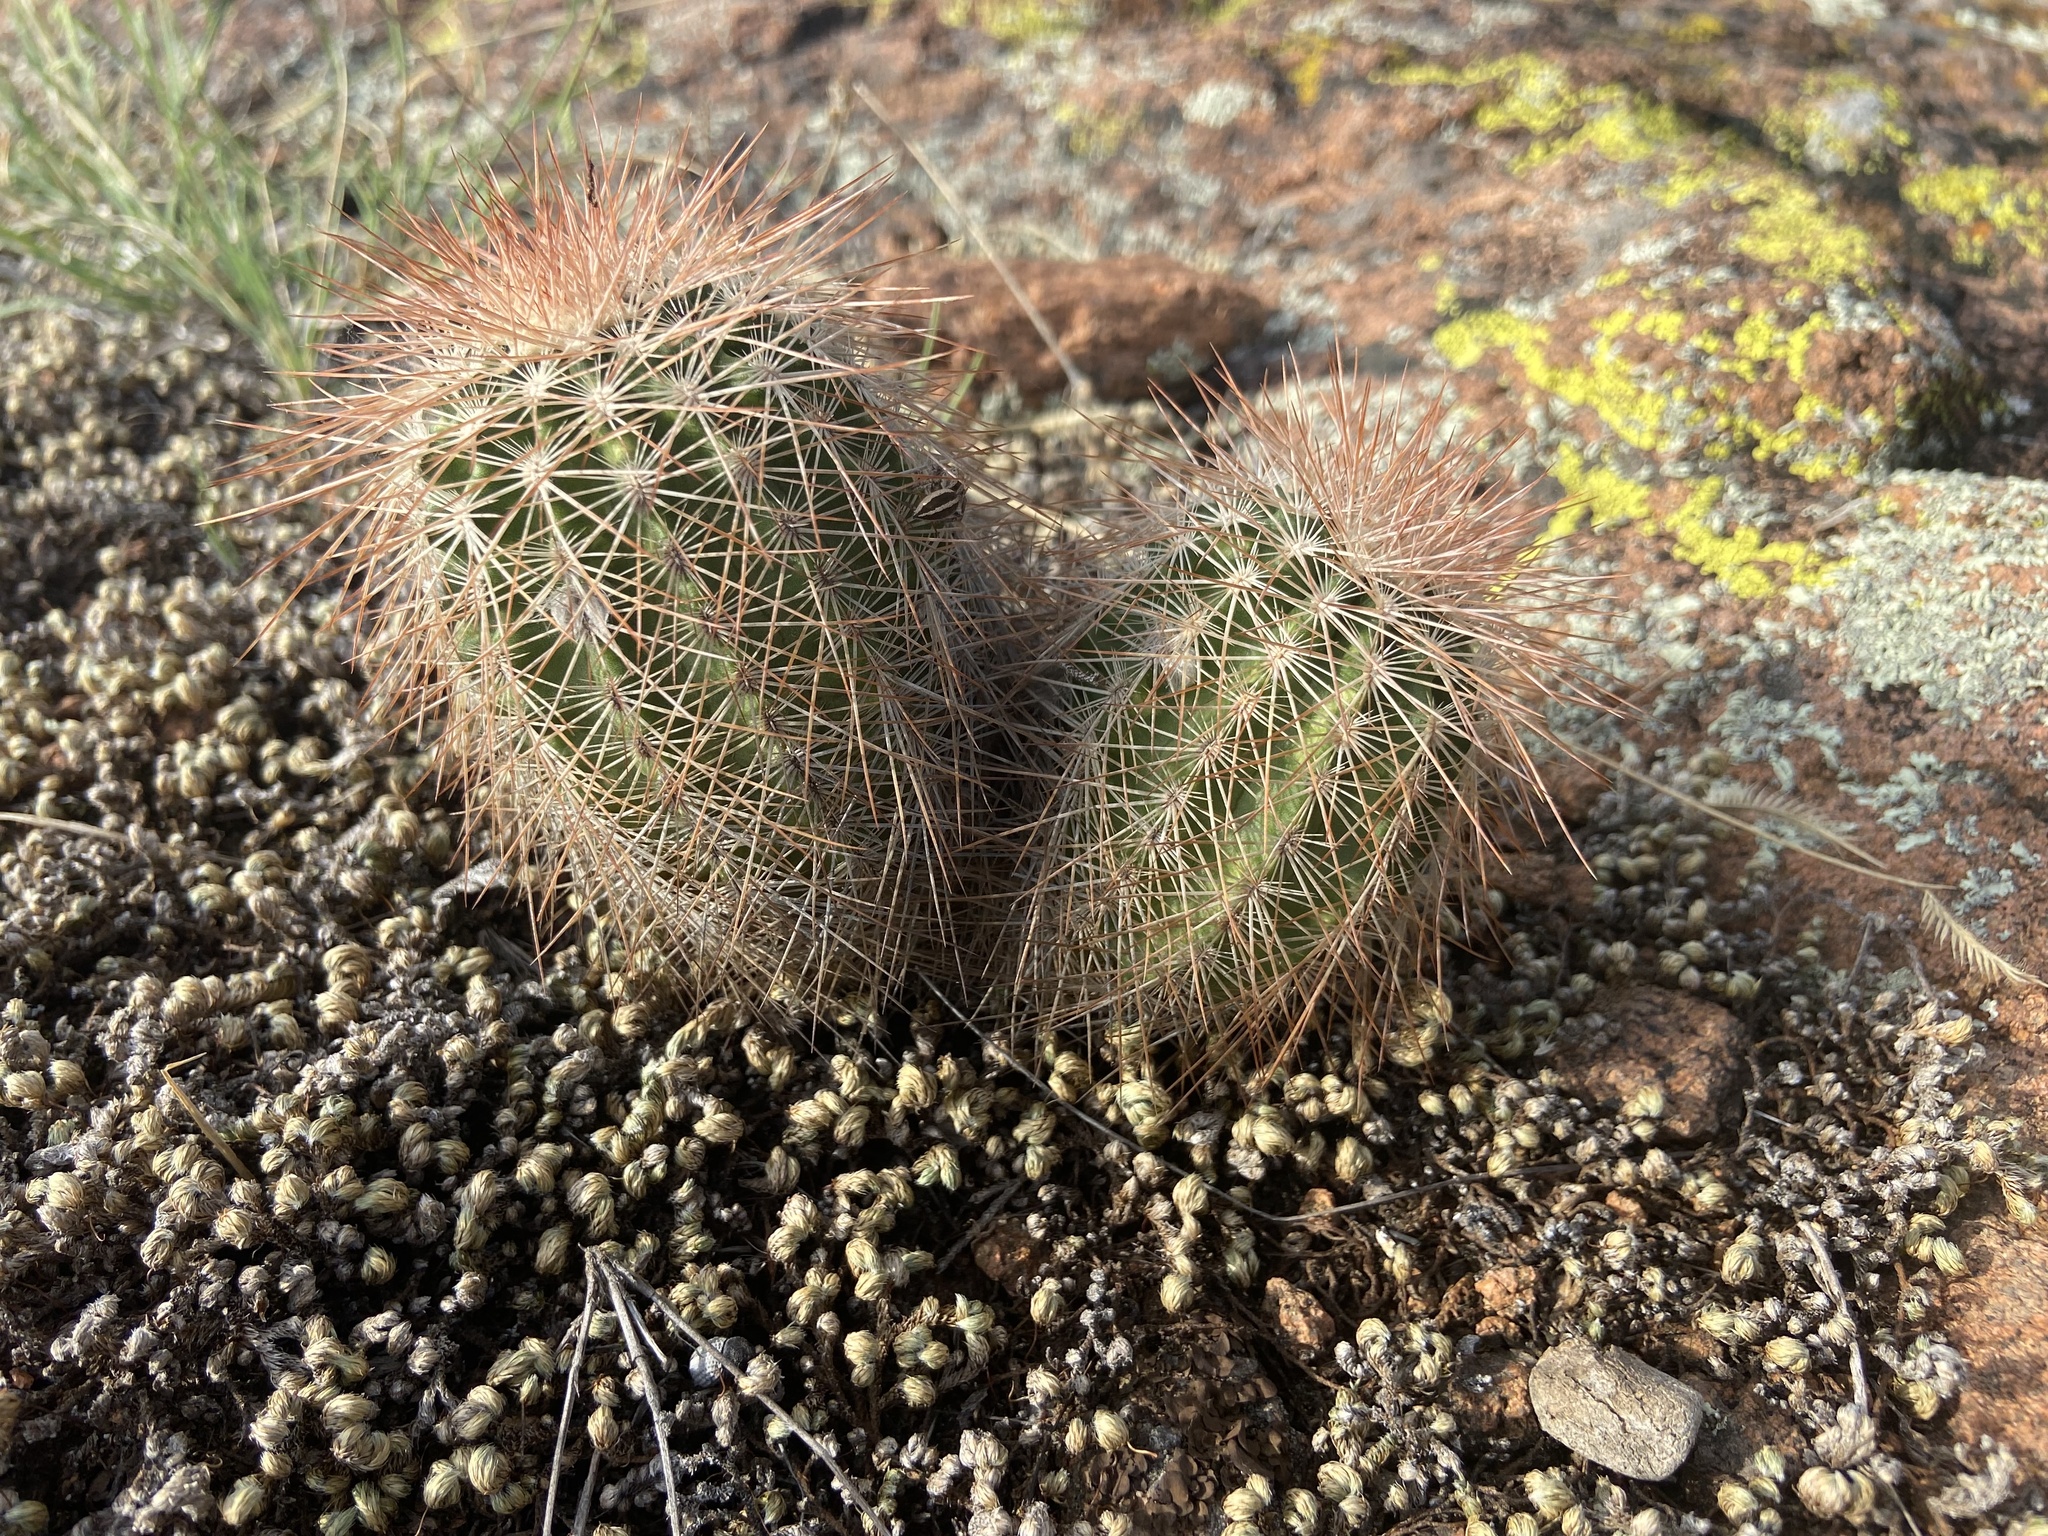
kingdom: Plantae
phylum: Tracheophyta
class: Magnoliopsida
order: Caryophyllales
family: Cactaceae
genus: Echinocereus
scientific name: Echinocereus reichenbachii
